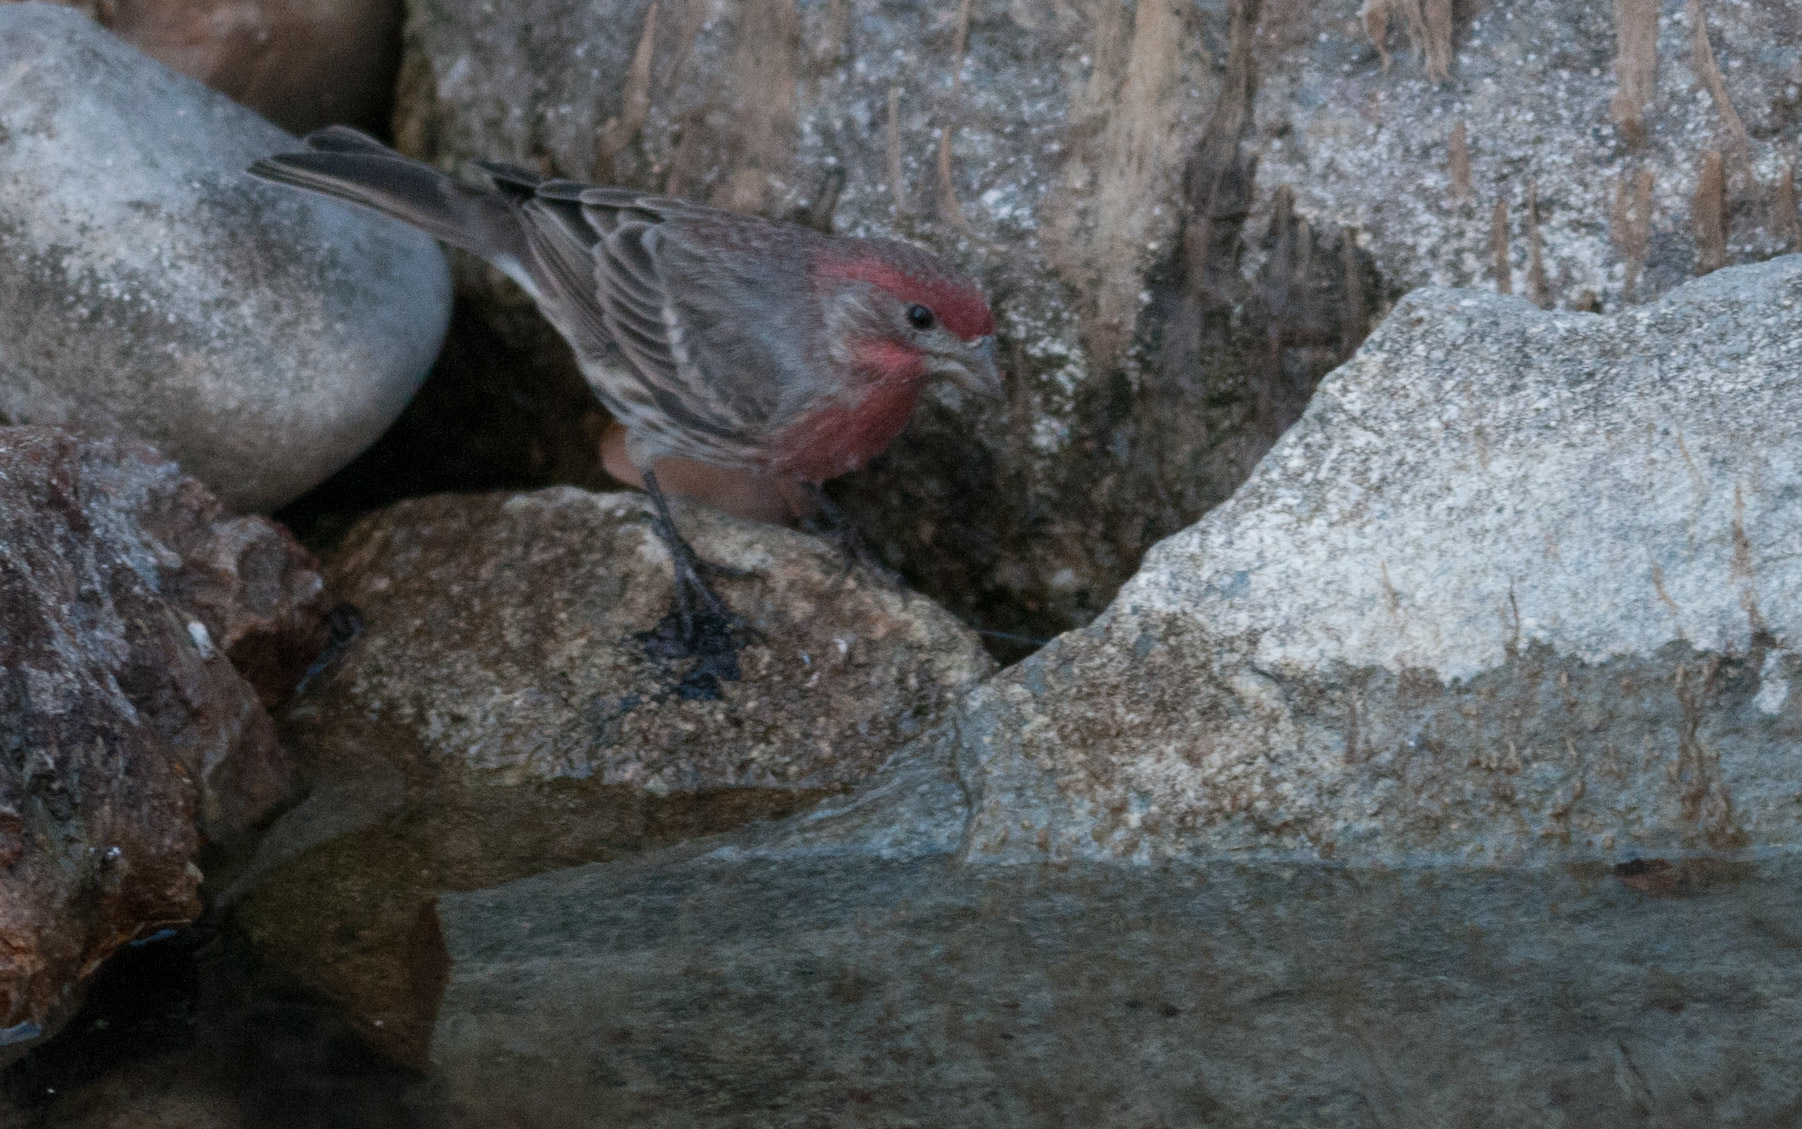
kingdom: Animalia
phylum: Chordata
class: Aves
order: Passeriformes
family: Fringillidae
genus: Haemorhous
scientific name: Haemorhous mexicanus
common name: House finch
